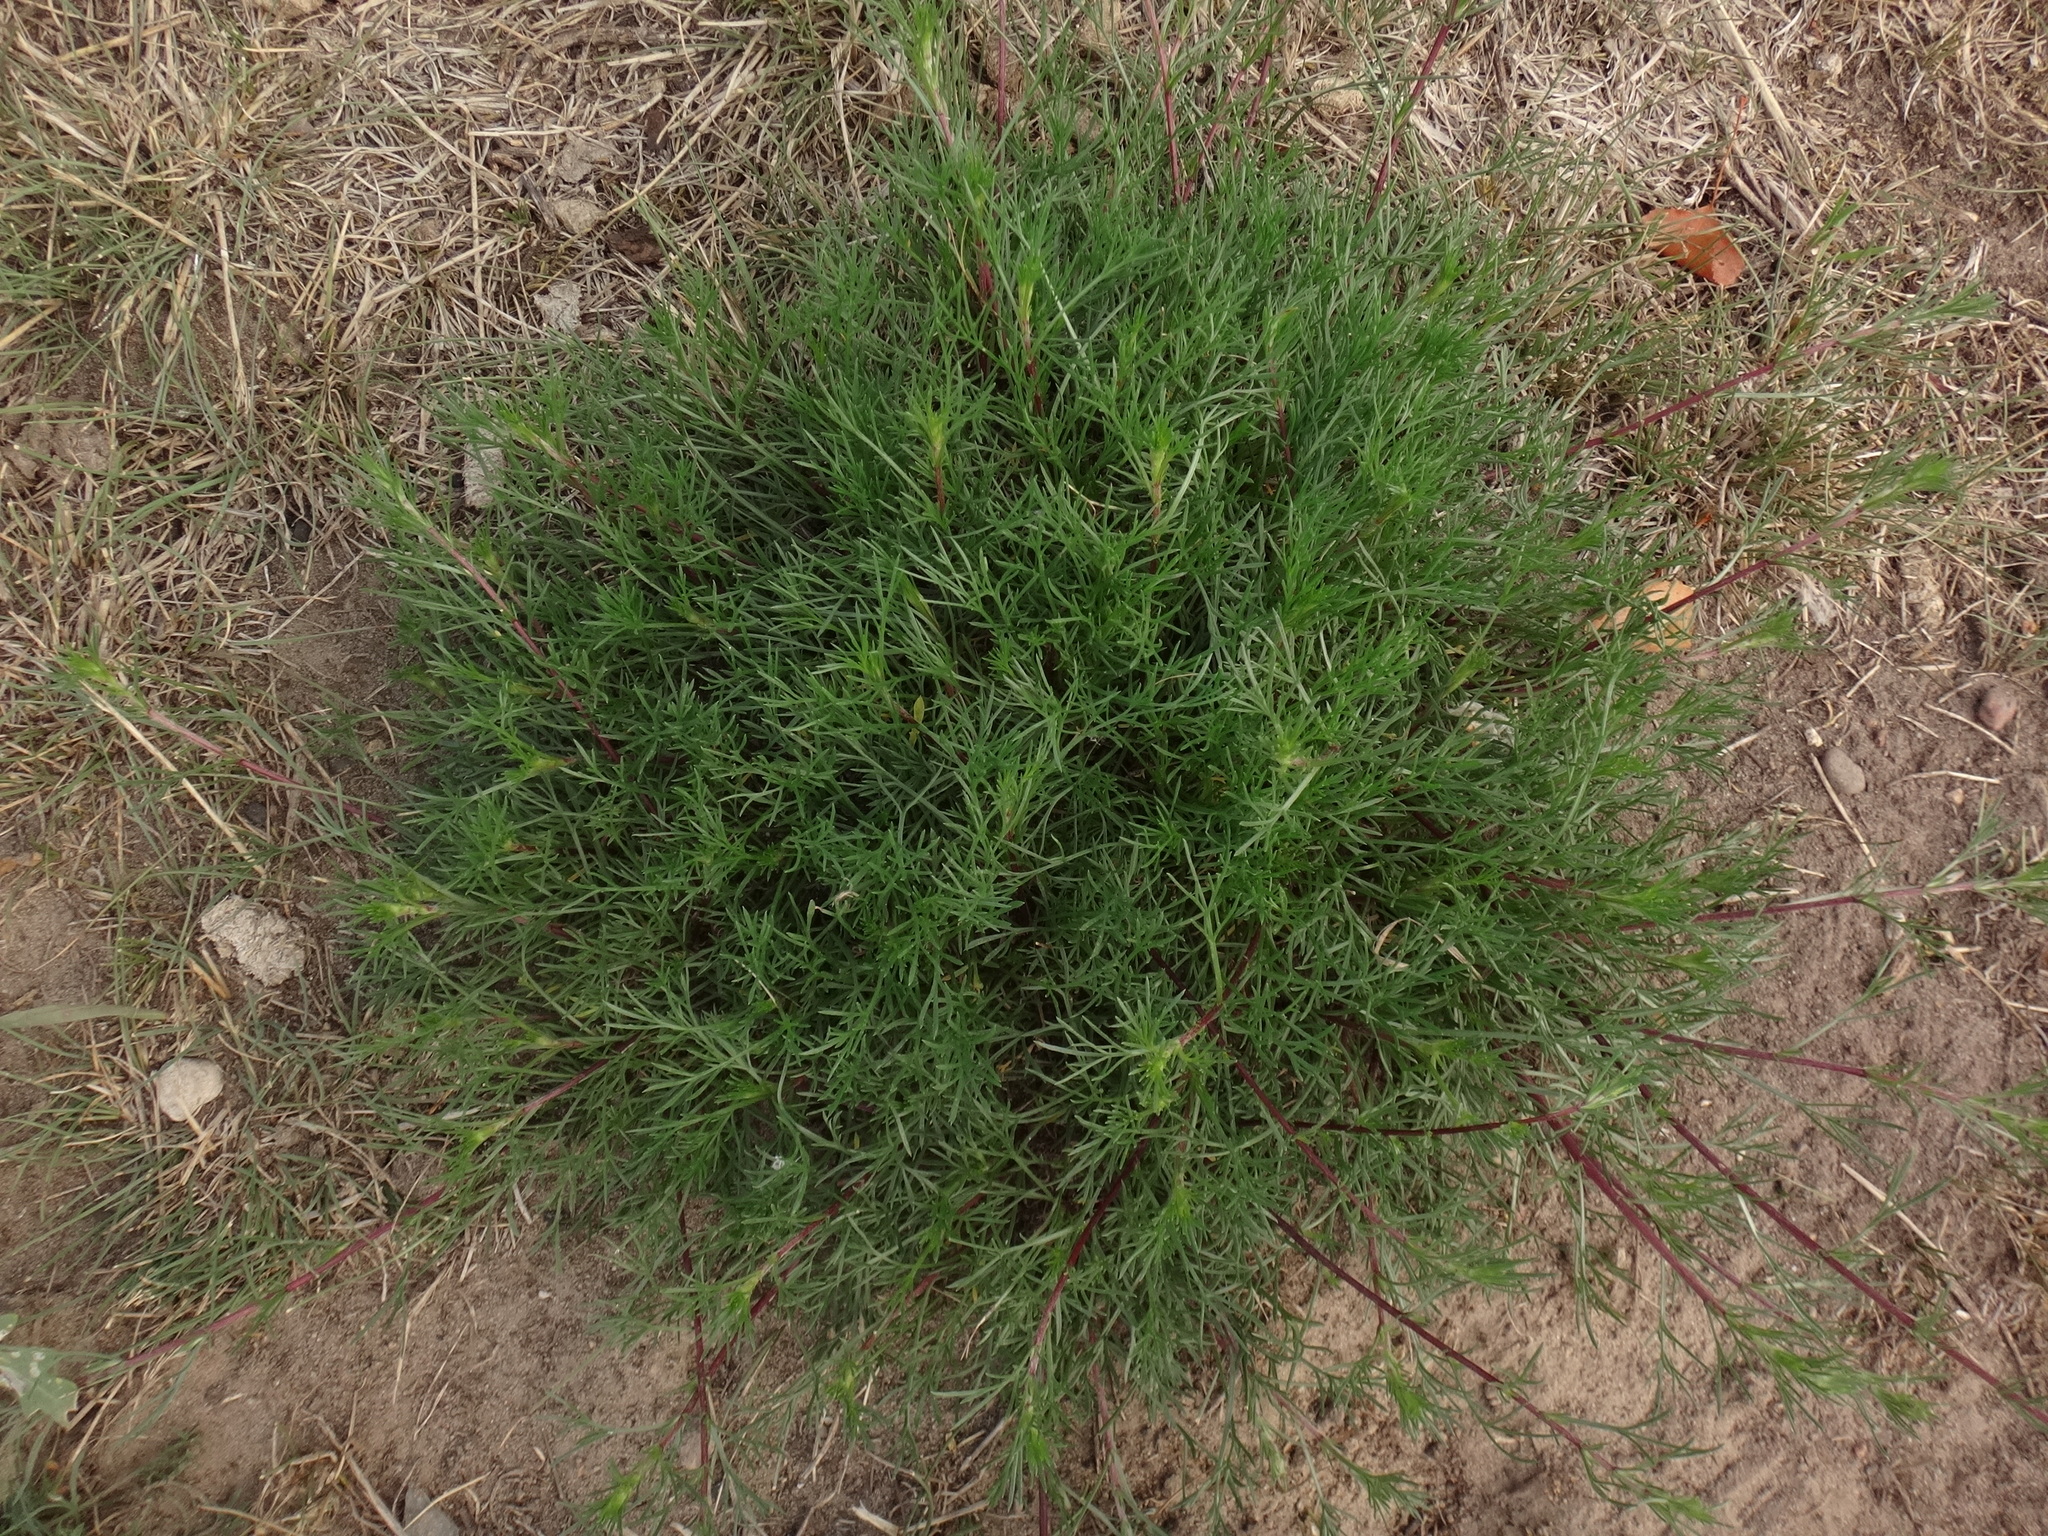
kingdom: Plantae
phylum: Tracheophyta
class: Magnoliopsida
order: Asterales
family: Asteraceae
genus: Artemisia
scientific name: Artemisia campestris
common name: Field wormwood
